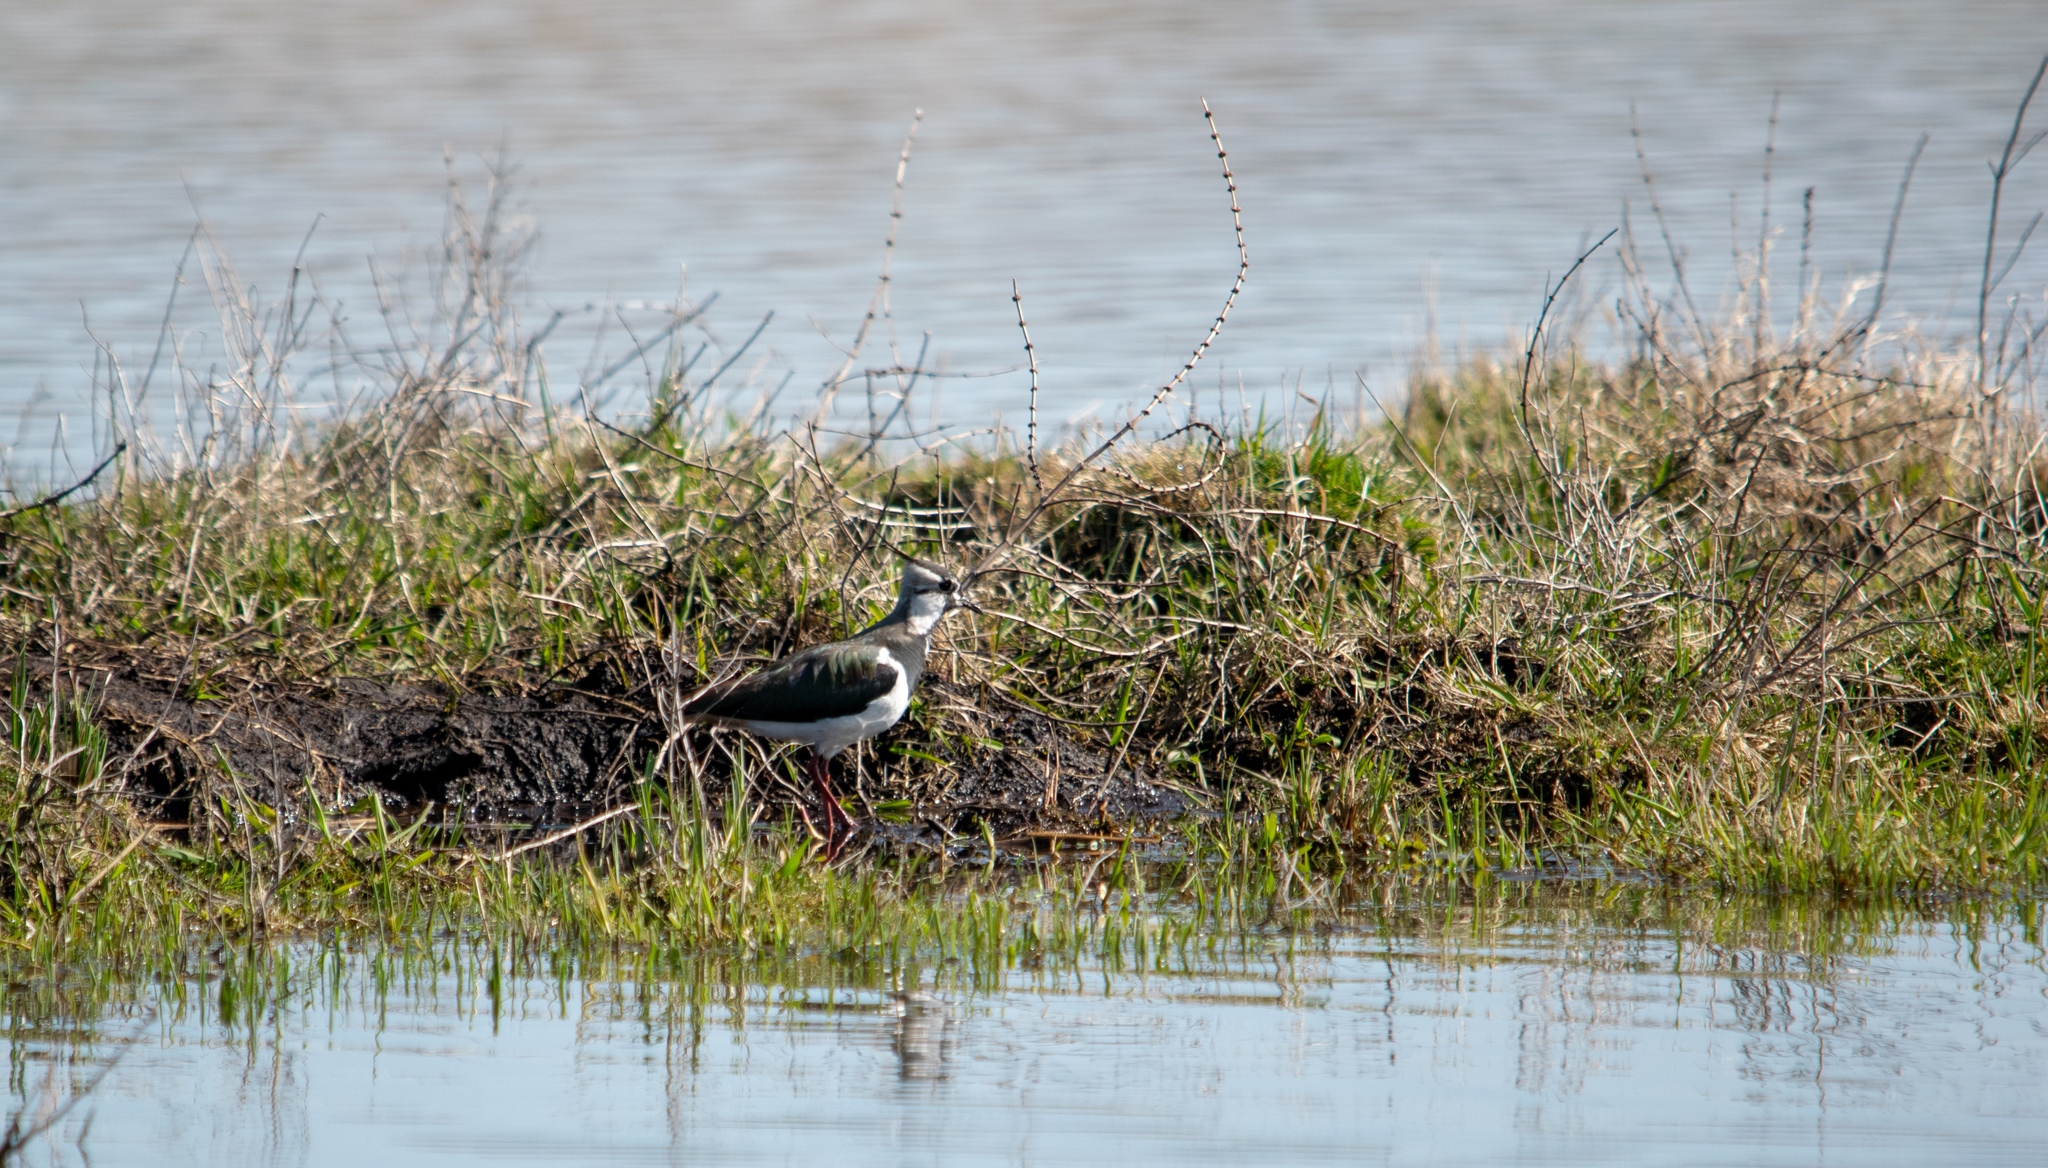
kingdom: Animalia
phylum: Chordata
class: Aves
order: Charadriiformes
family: Charadriidae
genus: Vanellus
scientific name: Vanellus vanellus
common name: Northern lapwing
